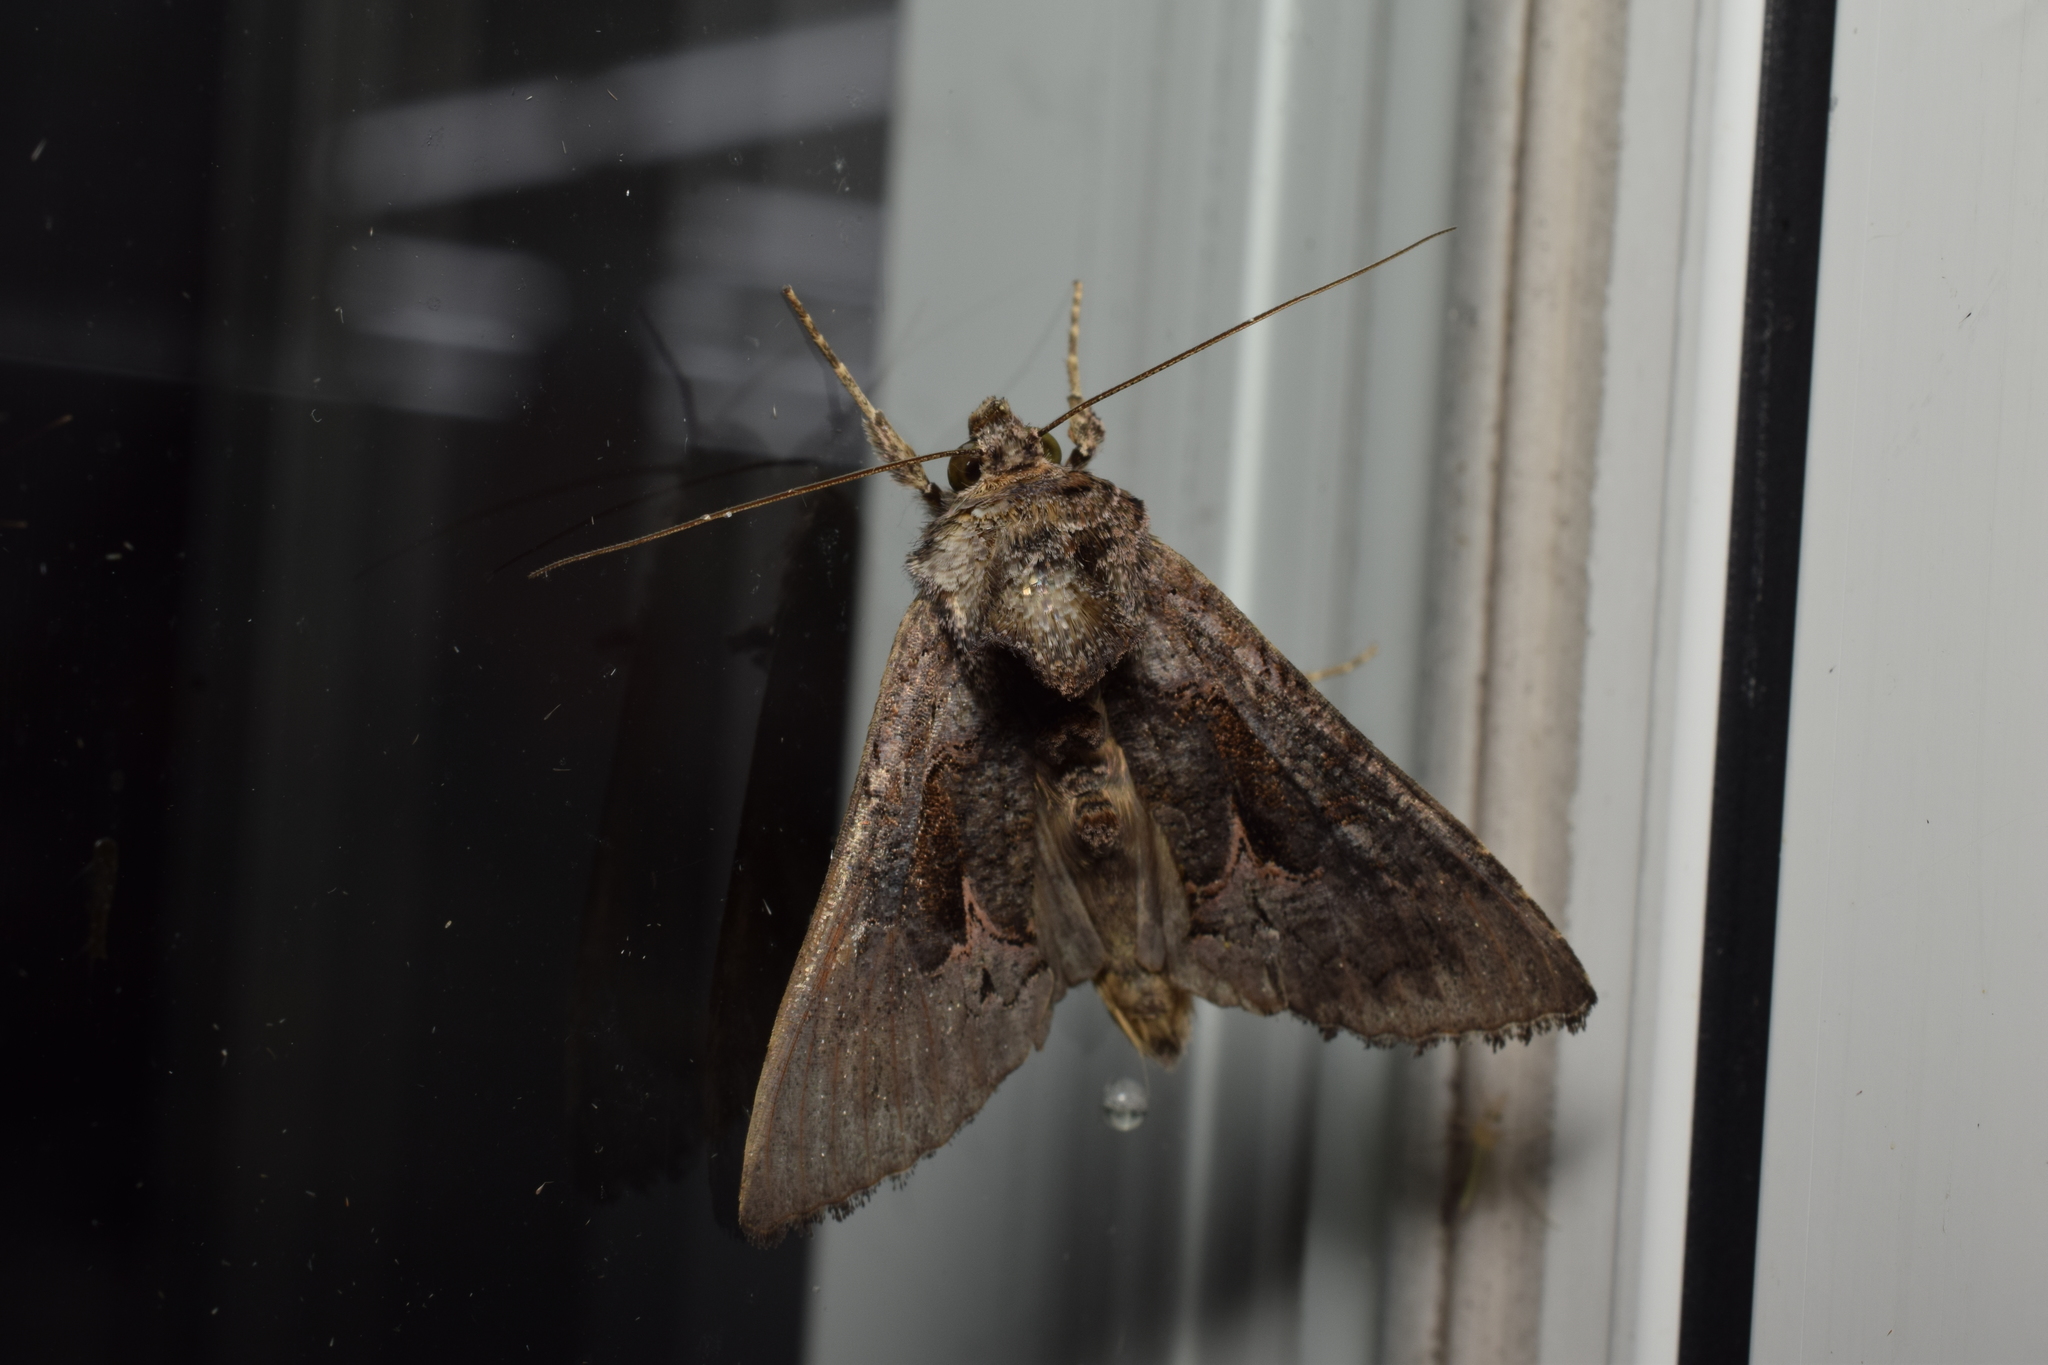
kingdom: Animalia
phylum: Arthropoda
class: Insecta
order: Lepidoptera
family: Noctuidae
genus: Ctenoplusia
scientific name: Ctenoplusia albostriata
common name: Moth
